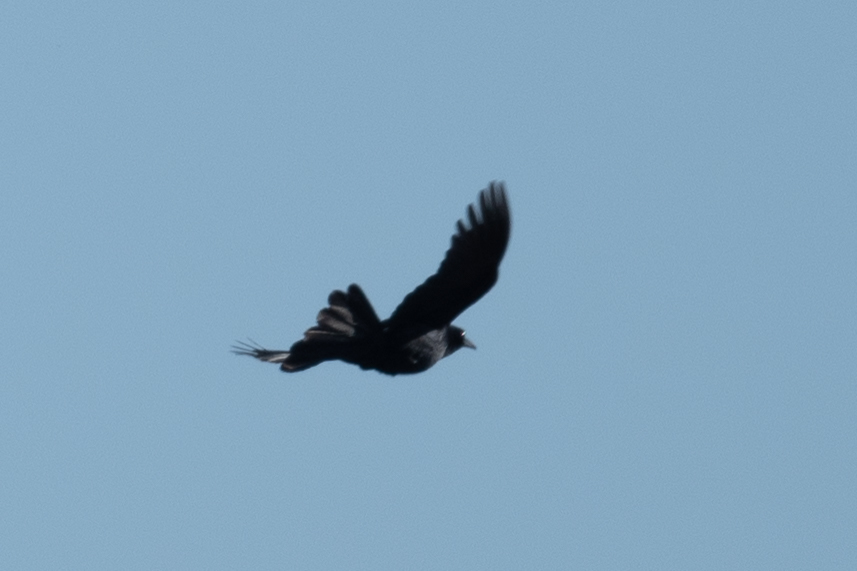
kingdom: Animalia
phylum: Chordata
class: Aves
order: Passeriformes
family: Icteridae
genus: Quiscalus
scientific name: Quiscalus mexicanus
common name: Great-tailed grackle
